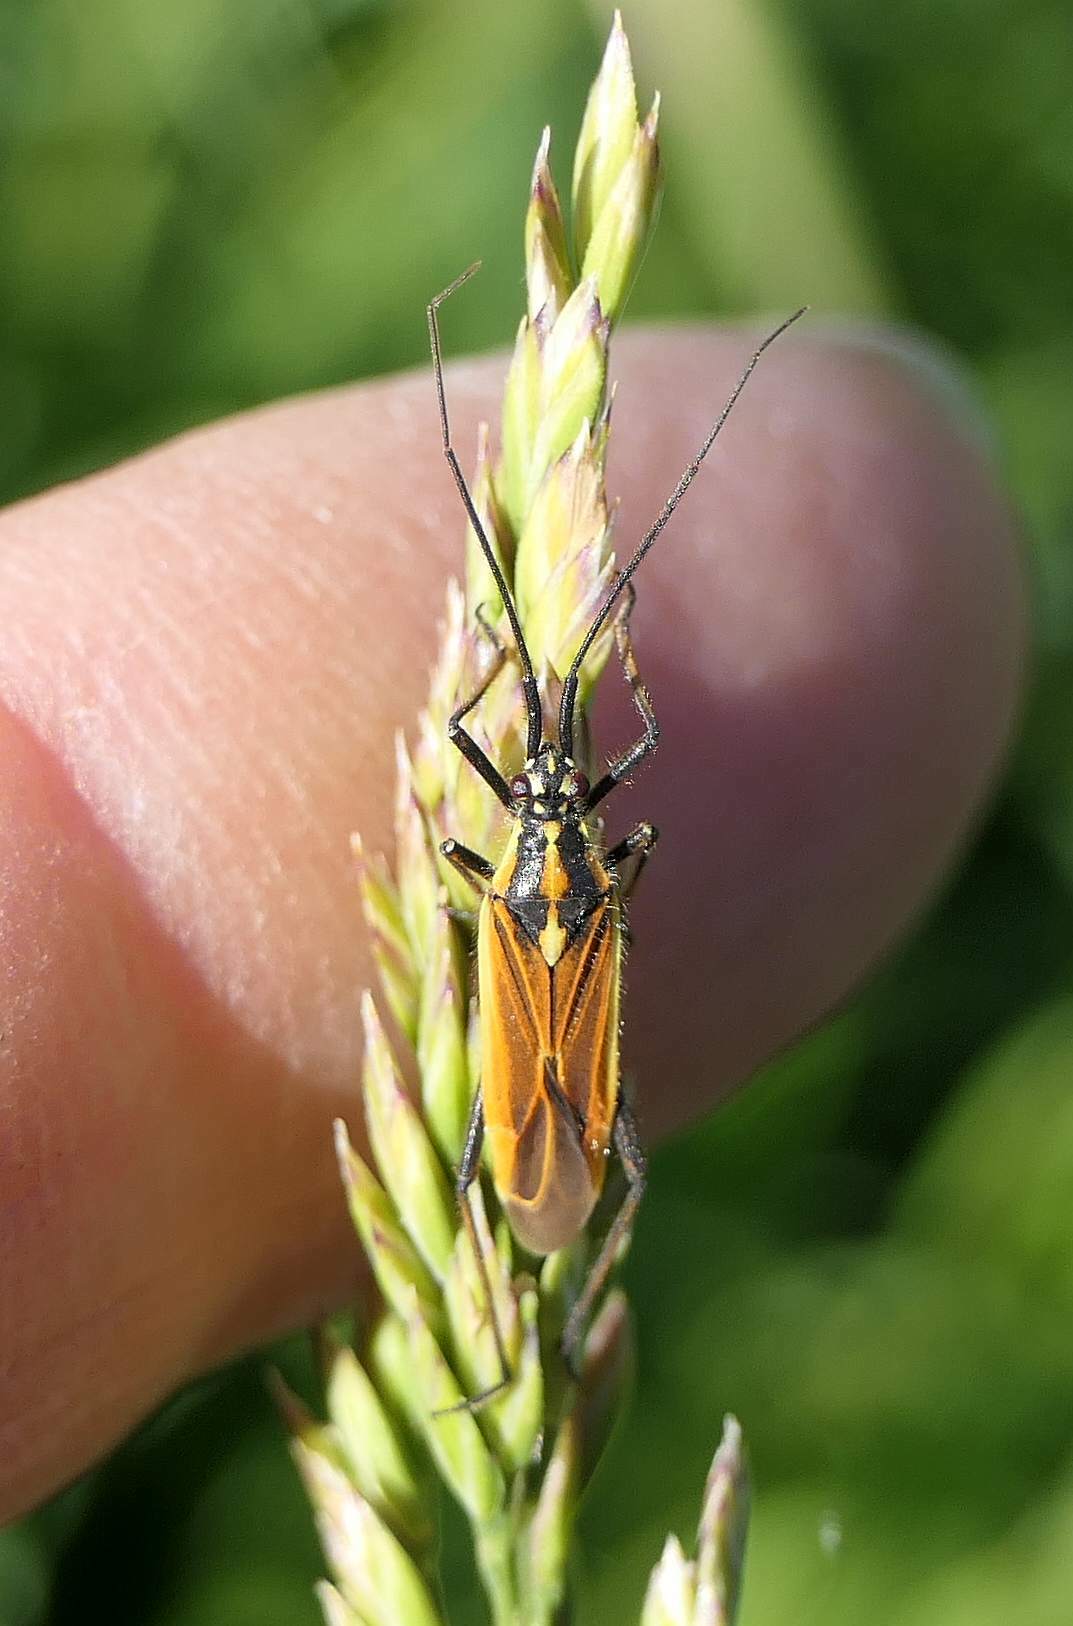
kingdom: Animalia
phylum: Arthropoda
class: Insecta
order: Hemiptera
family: Miridae
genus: Leptopterna
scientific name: Leptopterna dolabrata
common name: Meadow plant bug
